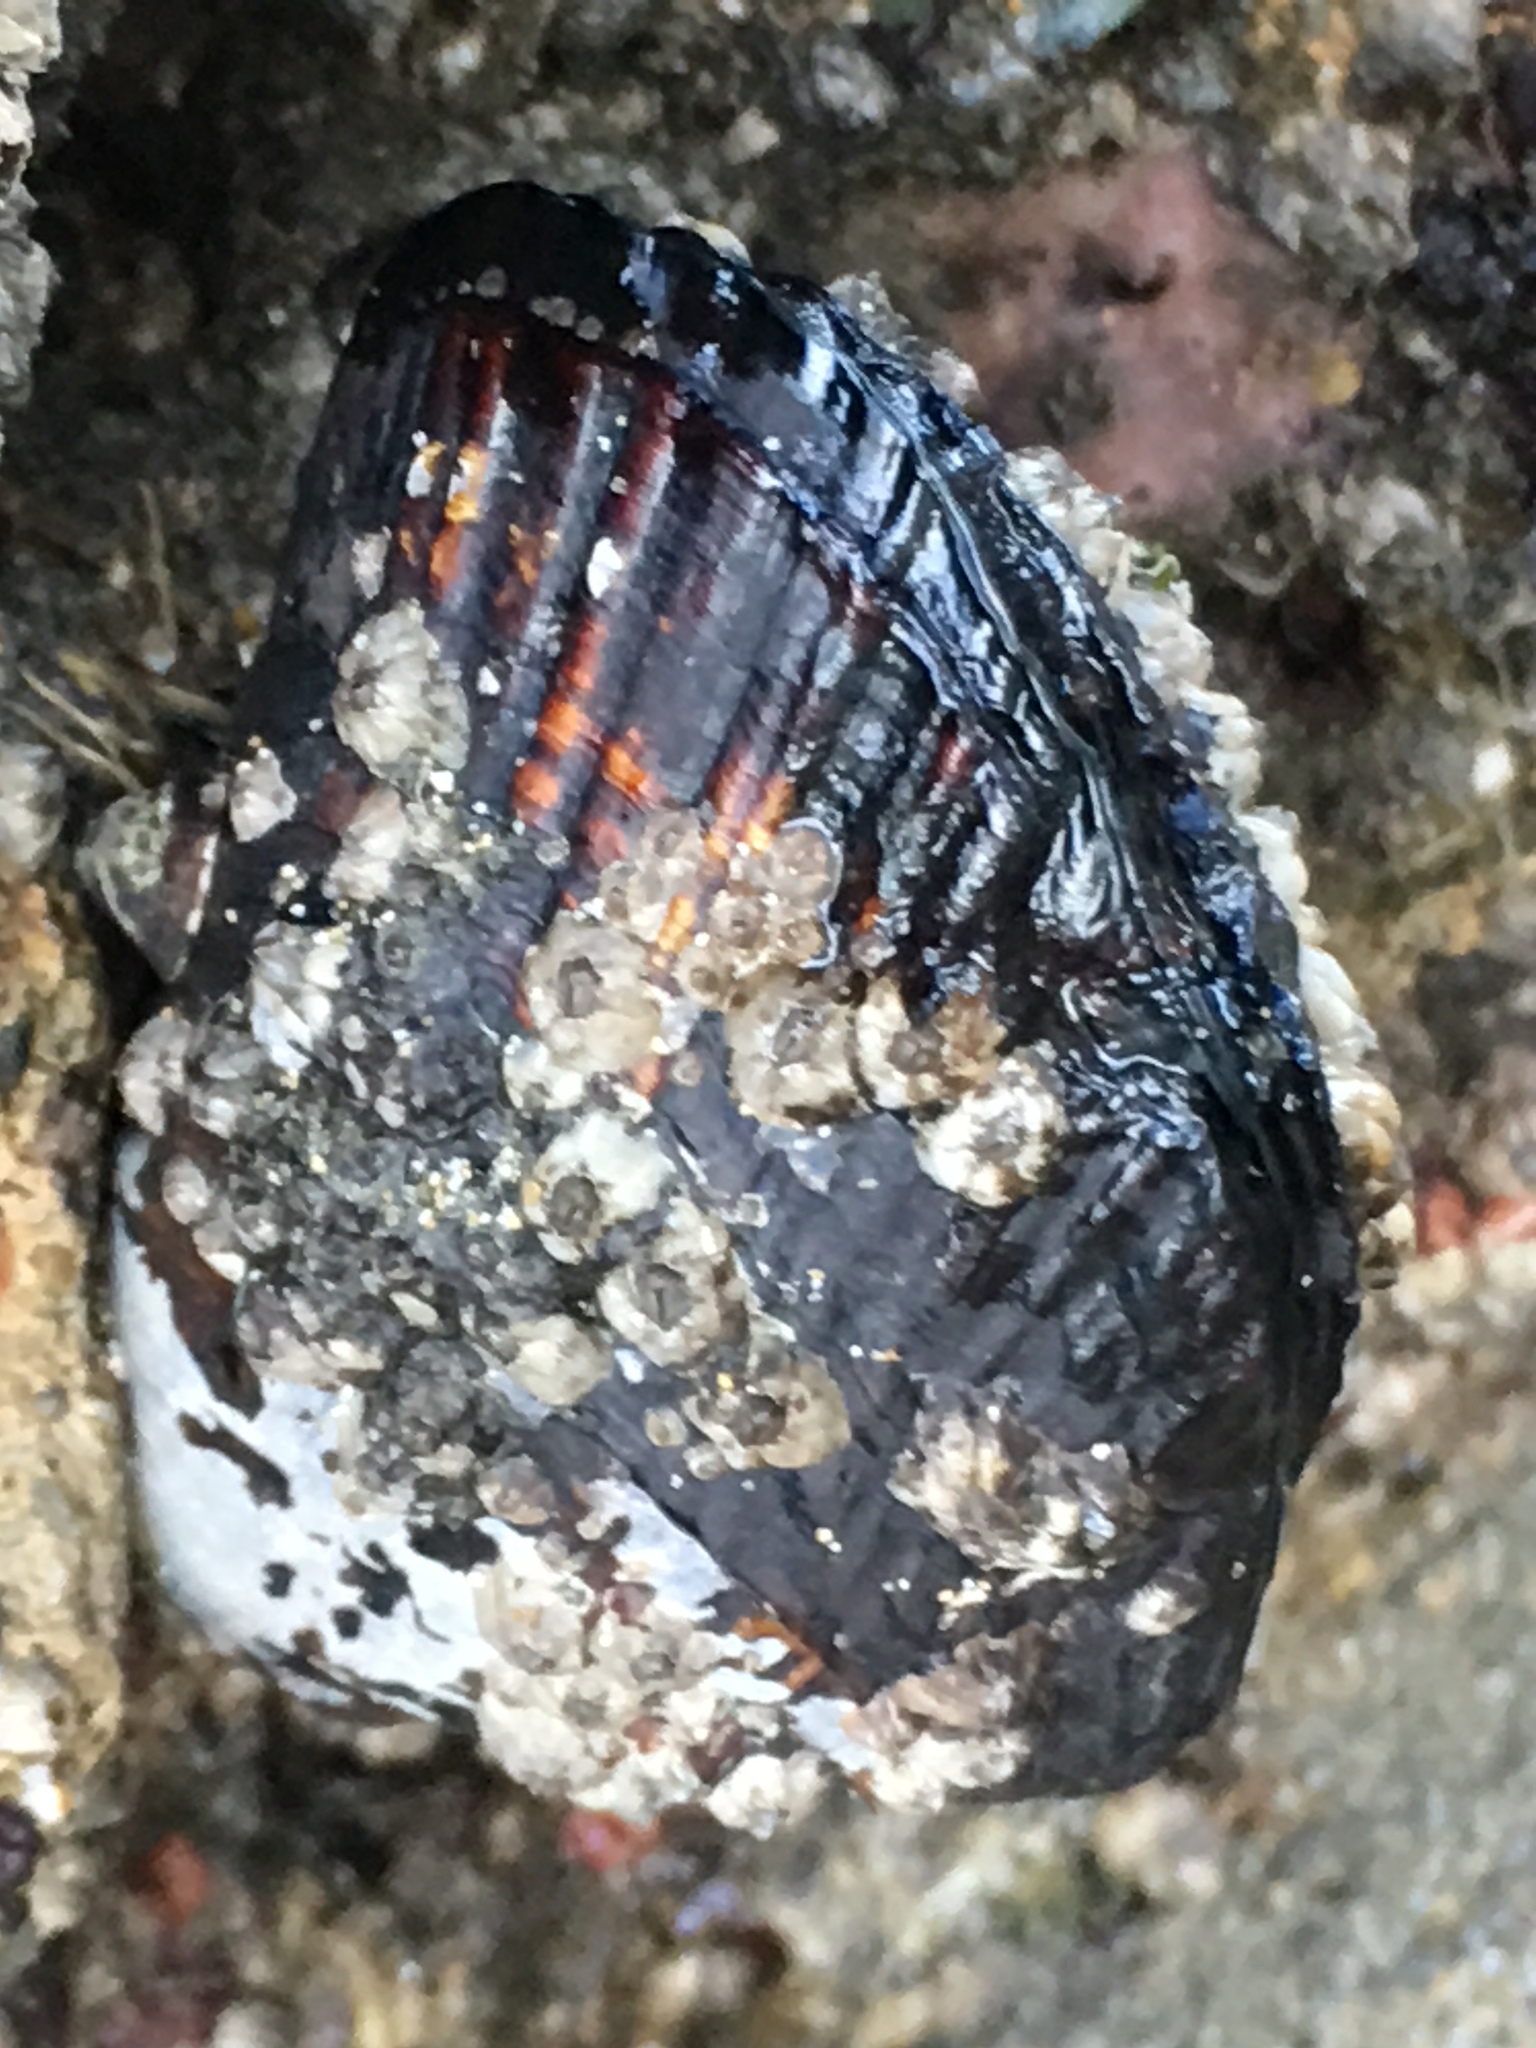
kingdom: Animalia
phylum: Mollusca
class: Bivalvia
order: Mytilida
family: Mytilidae
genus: Mytilus
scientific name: Mytilus californianus
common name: California mussel
